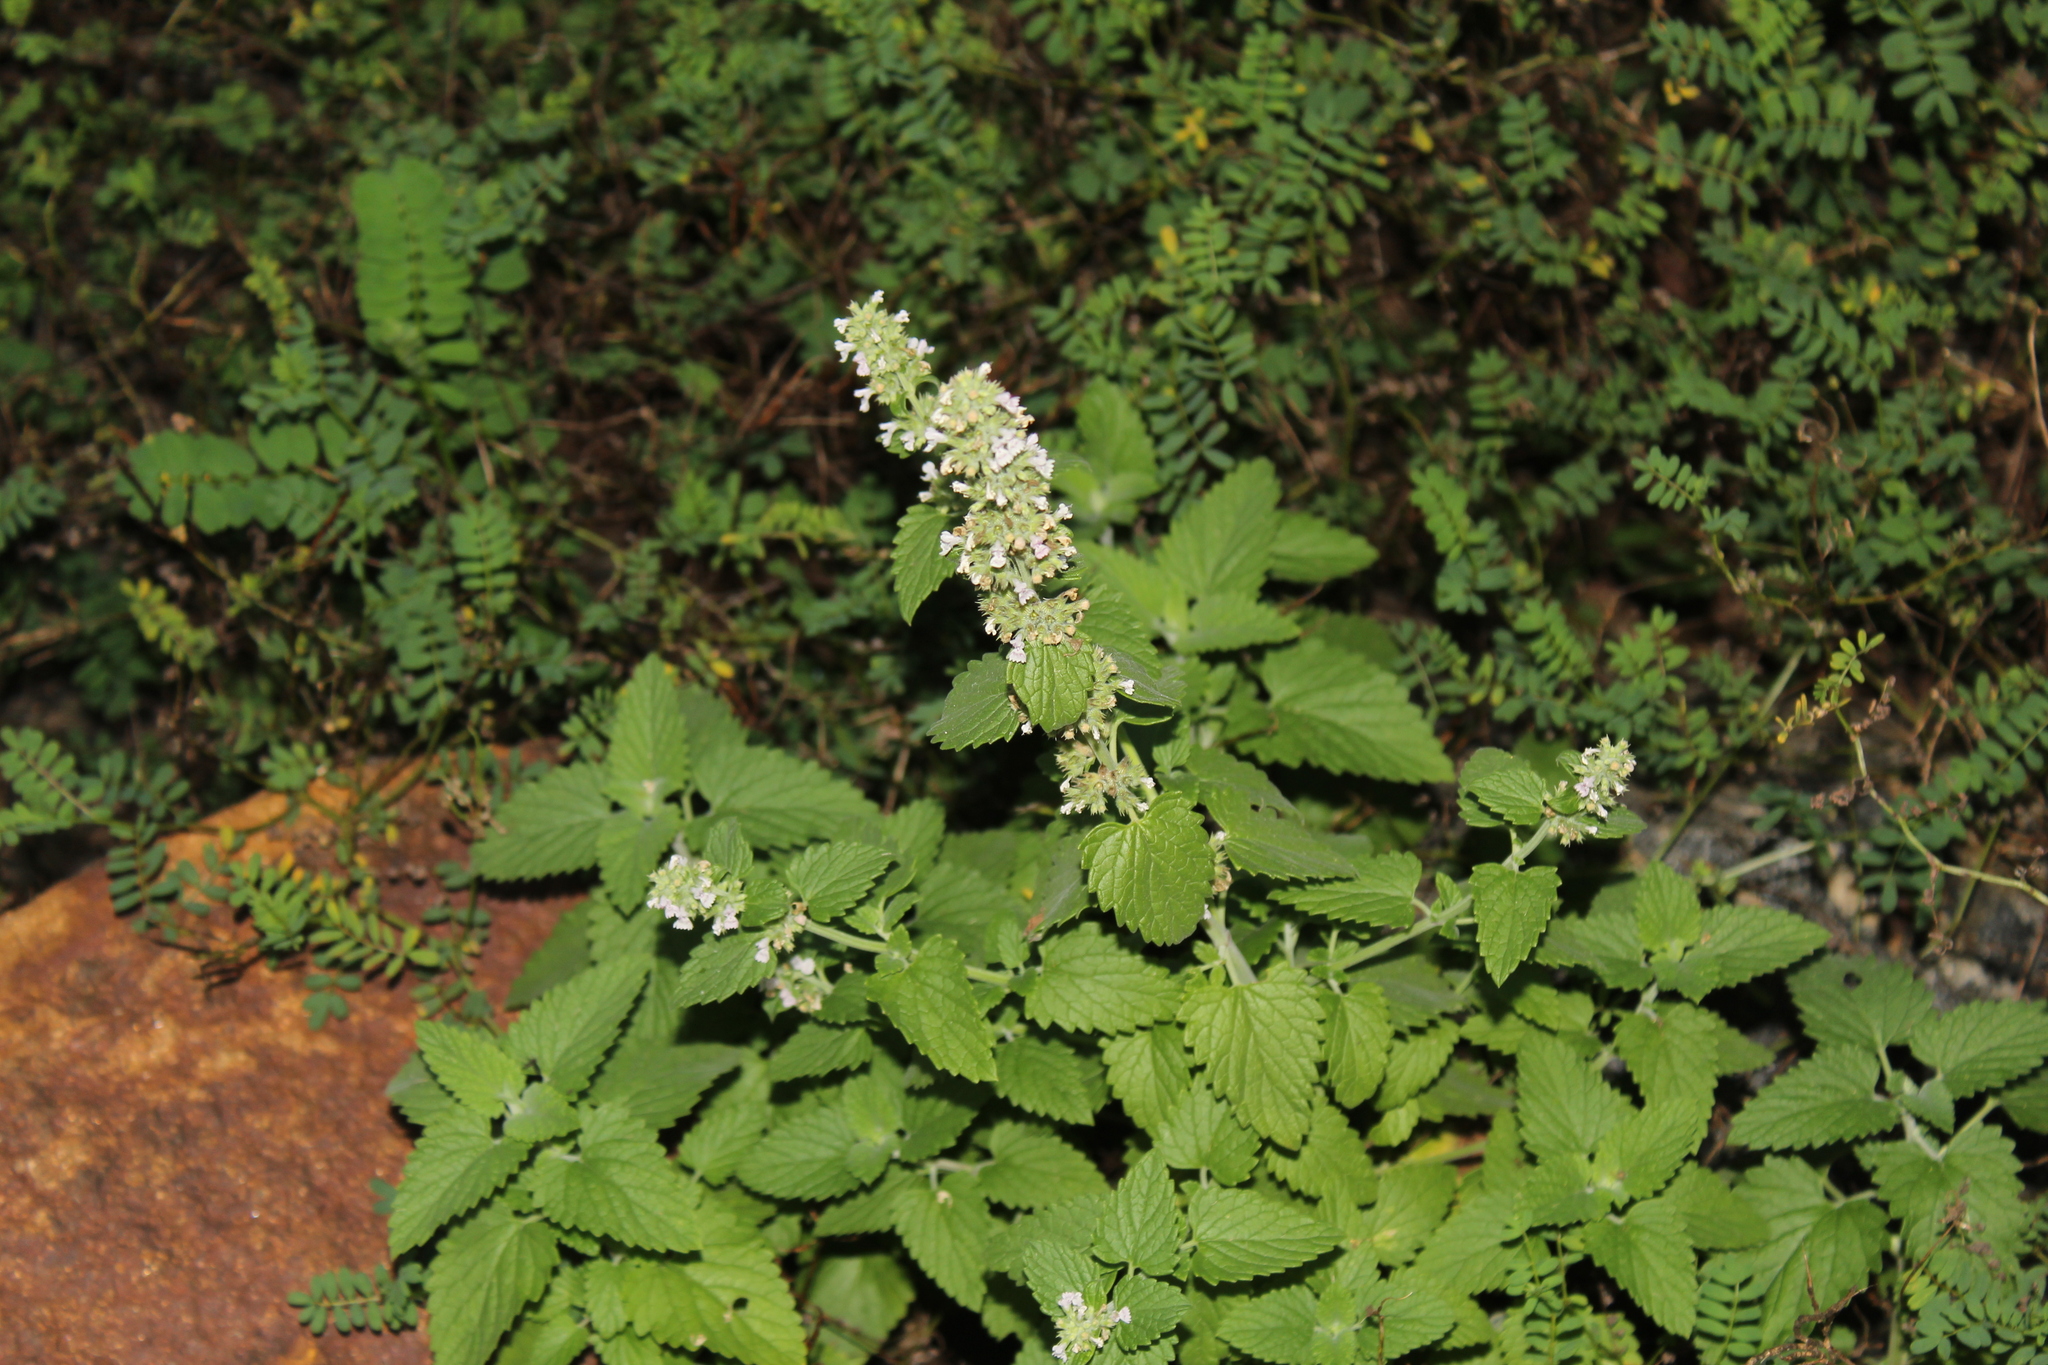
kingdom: Plantae
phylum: Tracheophyta
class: Magnoliopsida
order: Lamiales
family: Lamiaceae
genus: Nepeta
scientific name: Nepeta cataria
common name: Catnip
